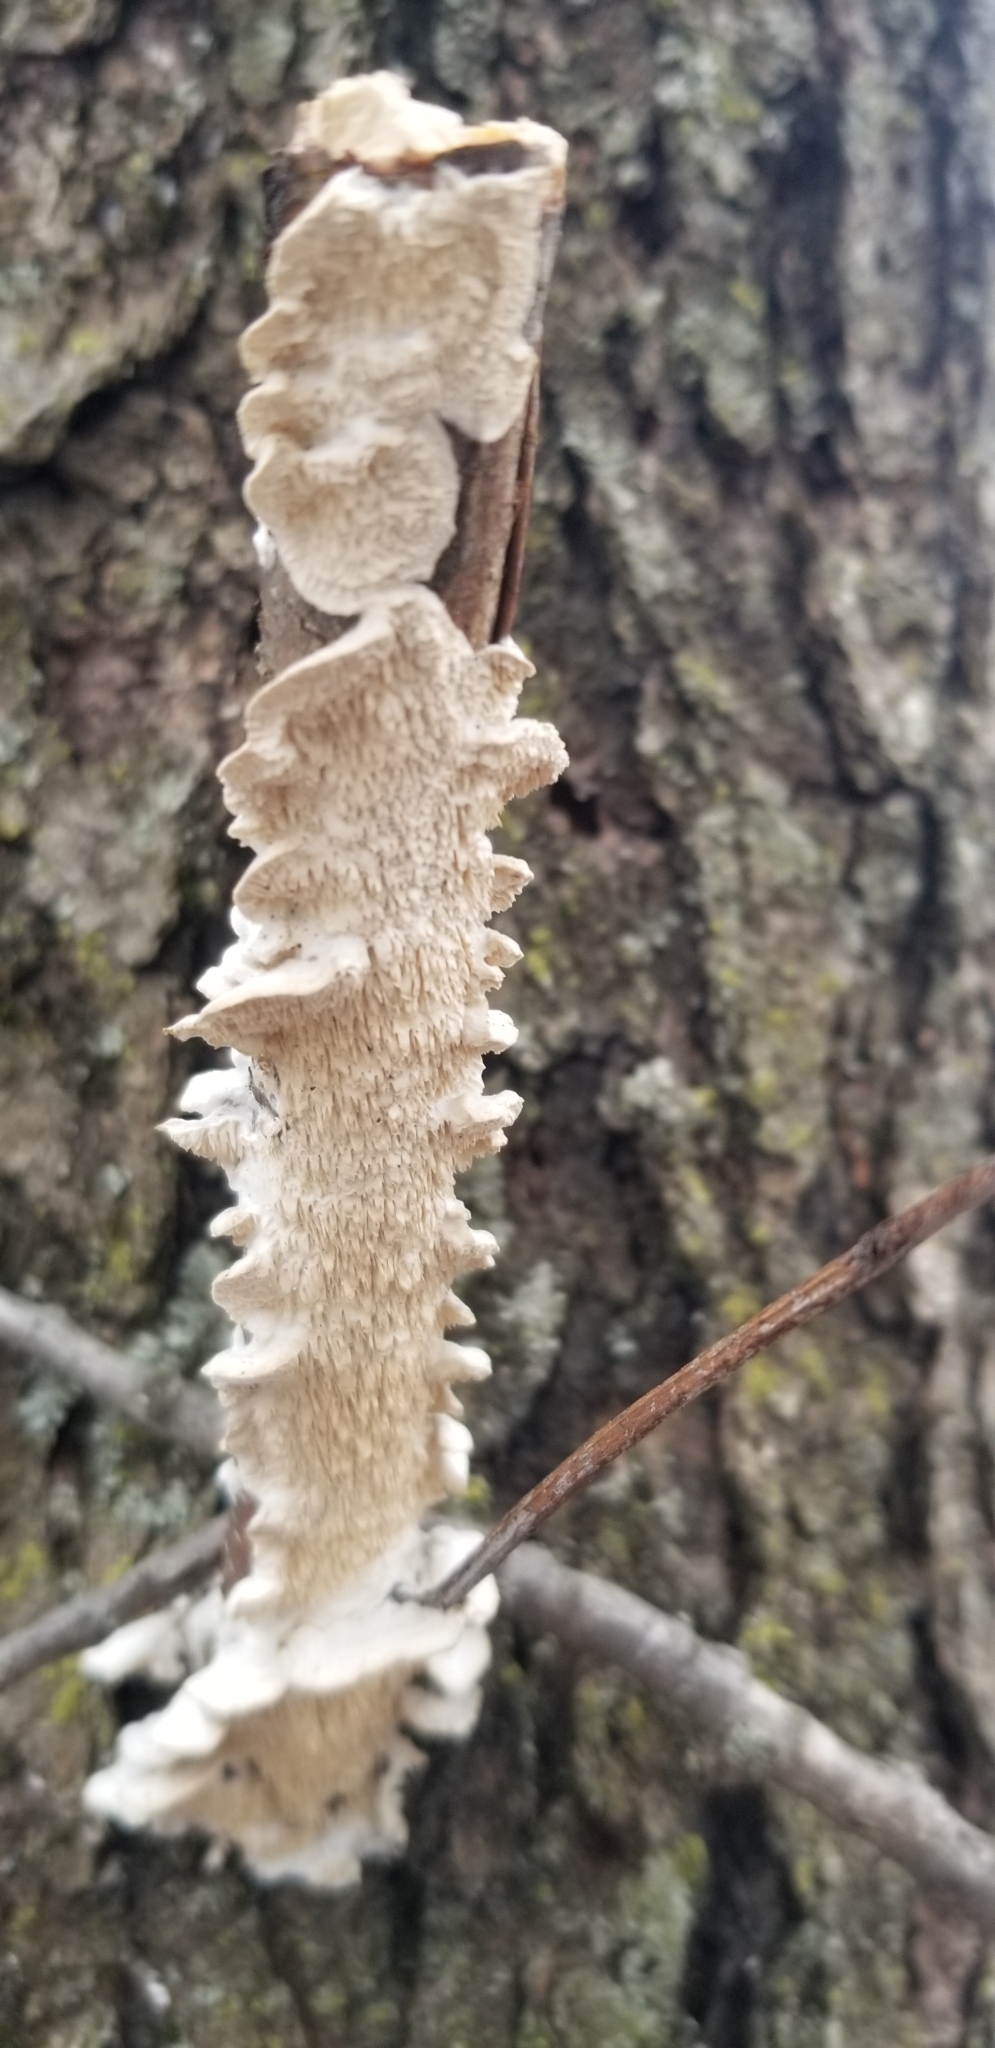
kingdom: Fungi
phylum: Basidiomycota
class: Agaricomycetes
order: Polyporales
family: Irpicaceae
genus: Irpex
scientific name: Irpex lacteus
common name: Milk-white toothed polypore
